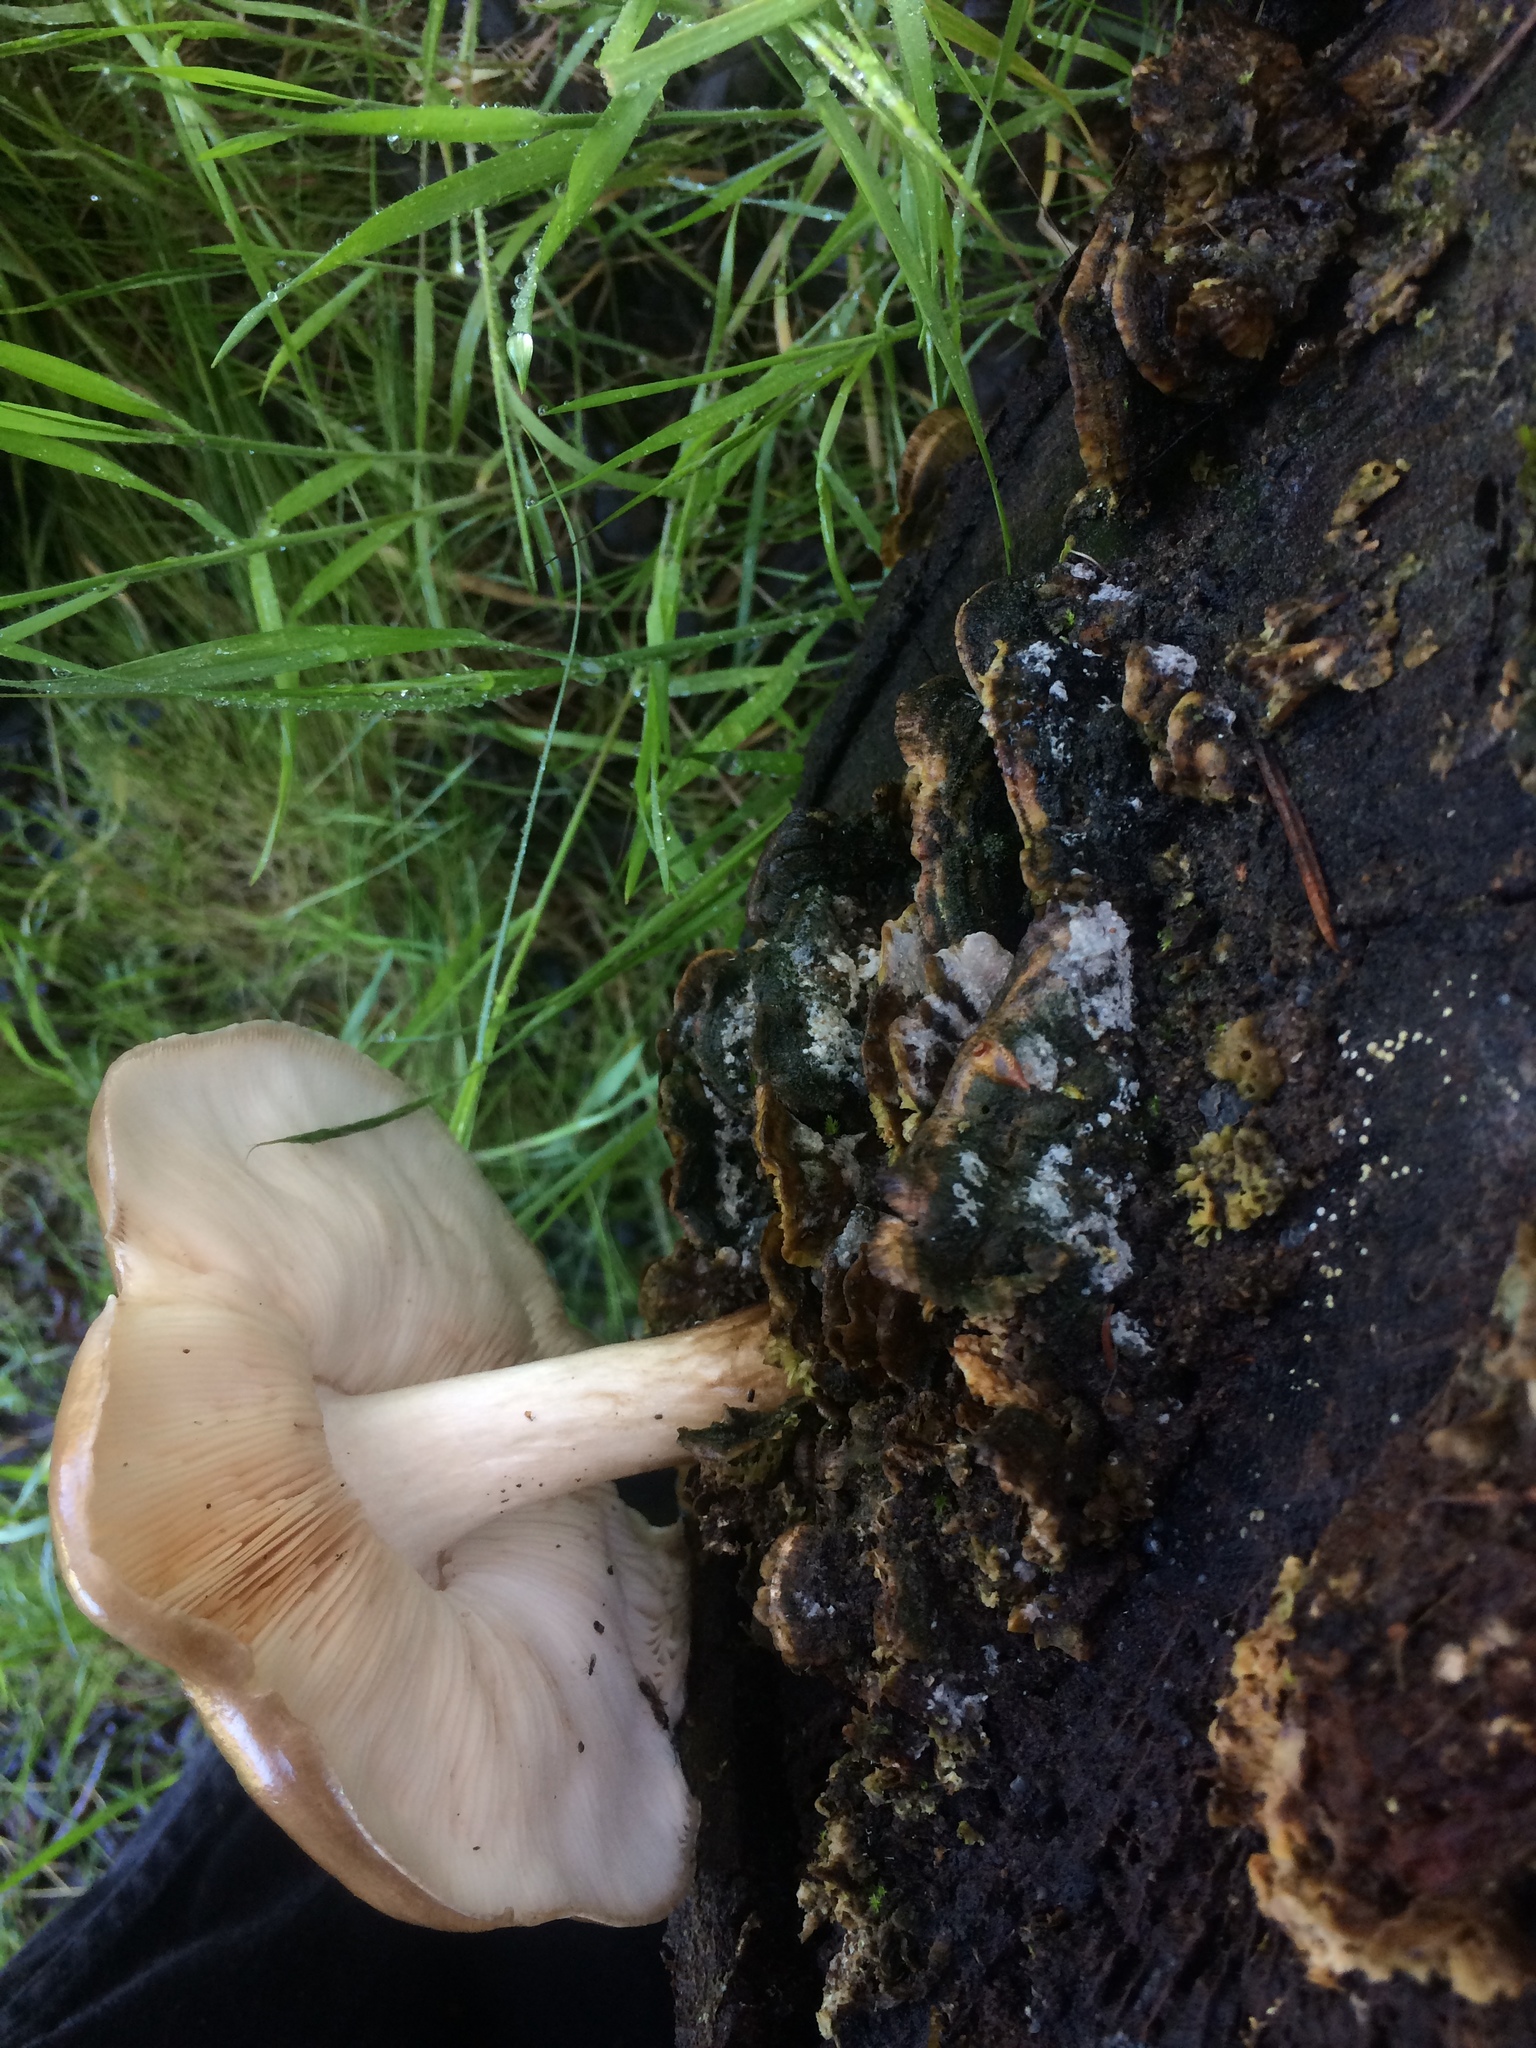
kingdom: Fungi
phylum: Basidiomycota
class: Agaricomycetes
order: Agaricales
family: Pluteaceae
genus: Pluteus
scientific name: Pluteus cervinus
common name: Deer shield
